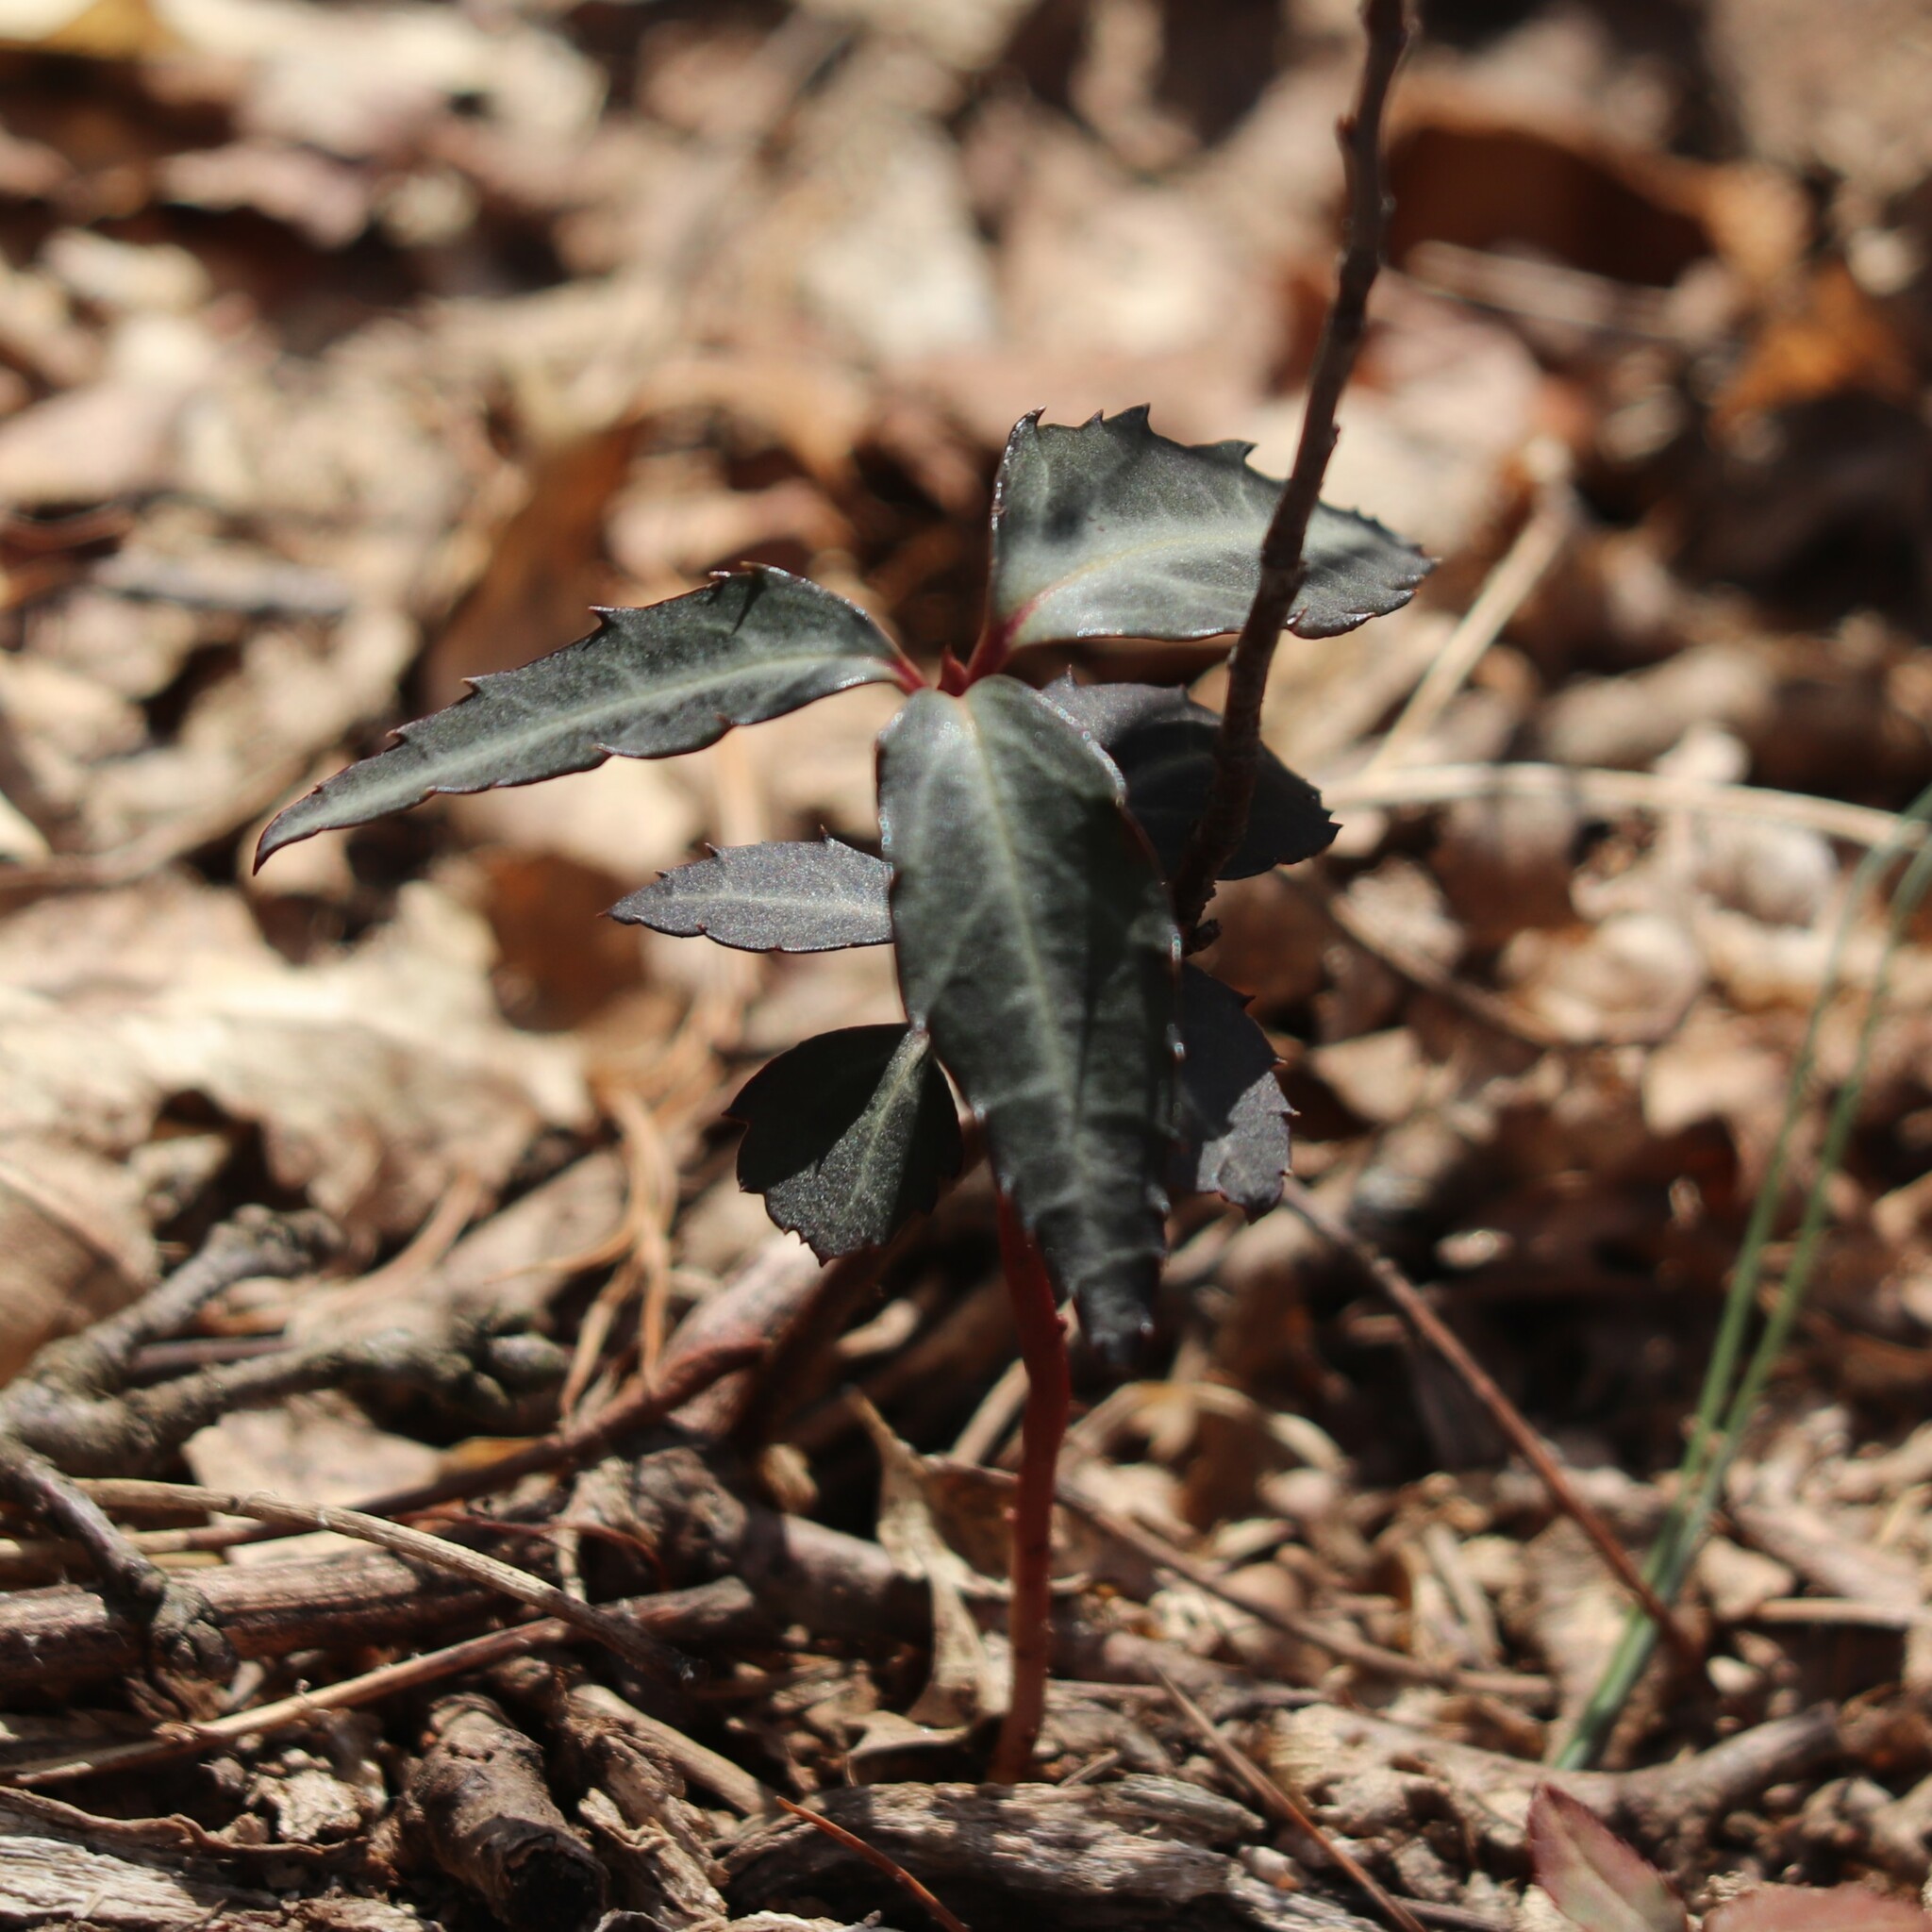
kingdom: Plantae
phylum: Tracheophyta
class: Magnoliopsida
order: Ericales
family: Ericaceae
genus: Chimaphila
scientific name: Chimaphila maculata
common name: Spotted pipsissewa
